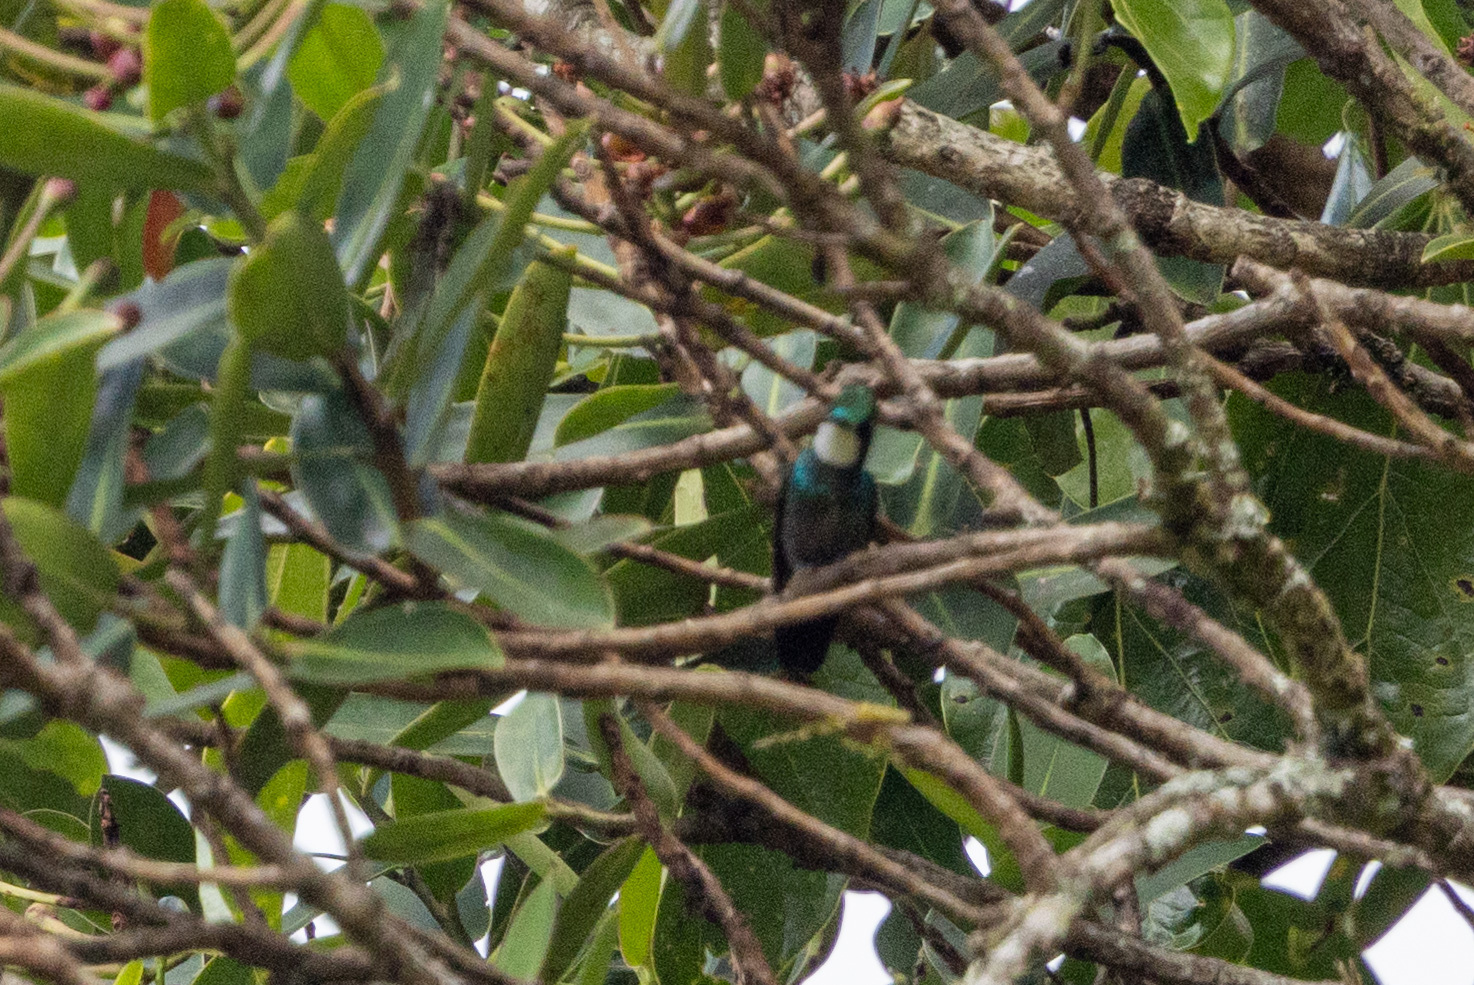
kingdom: Animalia
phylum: Chordata
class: Aves
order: Apodiformes
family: Trochilidae
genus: Lampornis
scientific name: Lampornis castaneoventris
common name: White-throated mountain-gem
